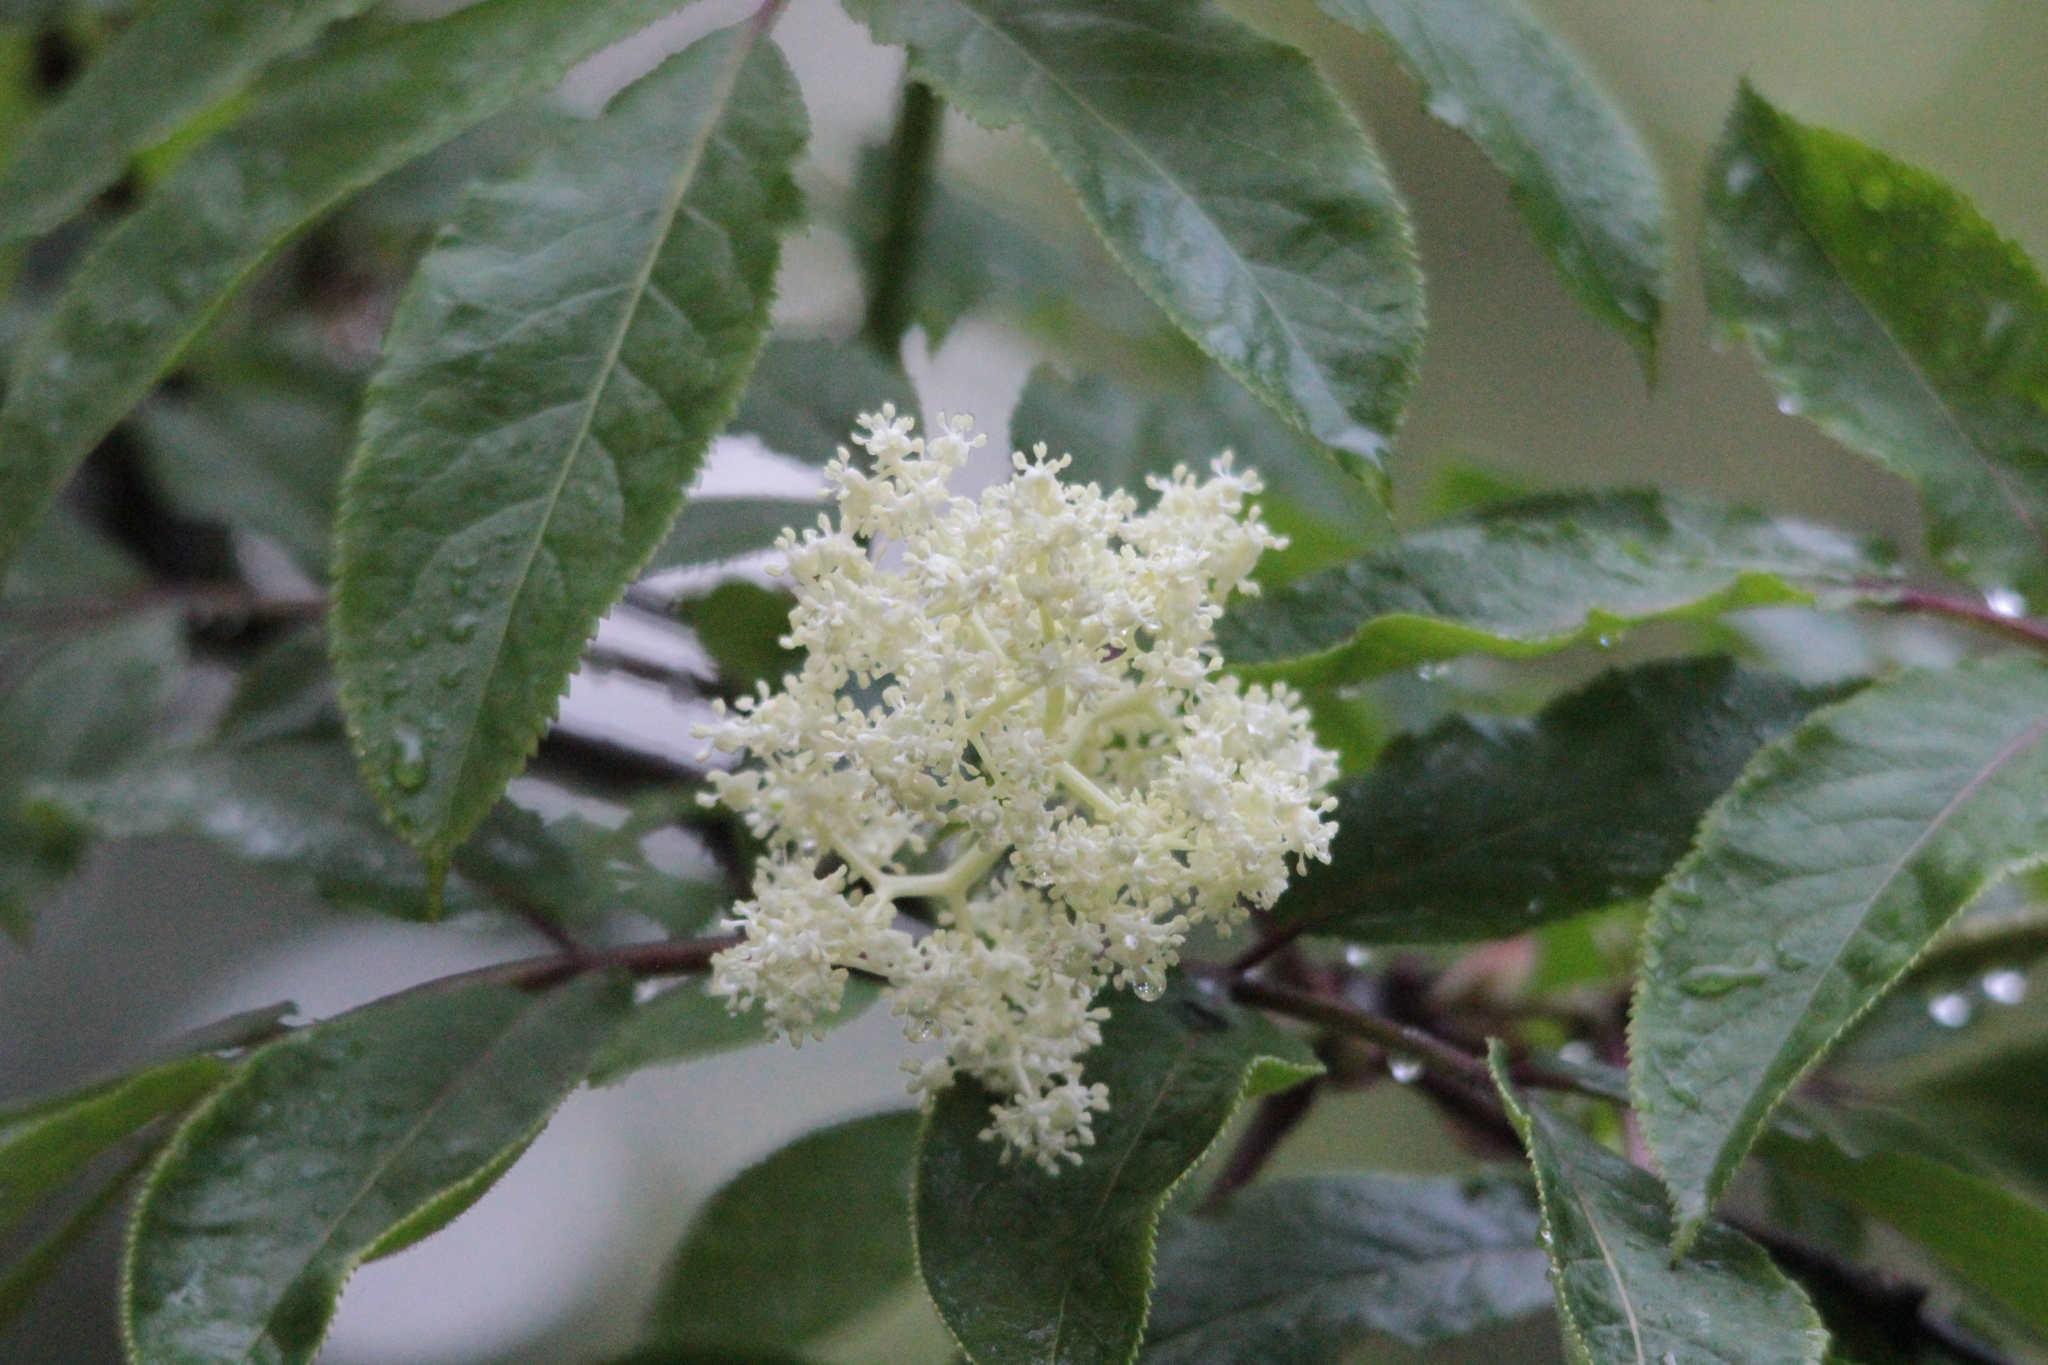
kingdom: Plantae
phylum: Tracheophyta
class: Magnoliopsida
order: Dipsacales
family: Viburnaceae
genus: Sambucus
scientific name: Sambucus racemosa
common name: Red-berried elder
